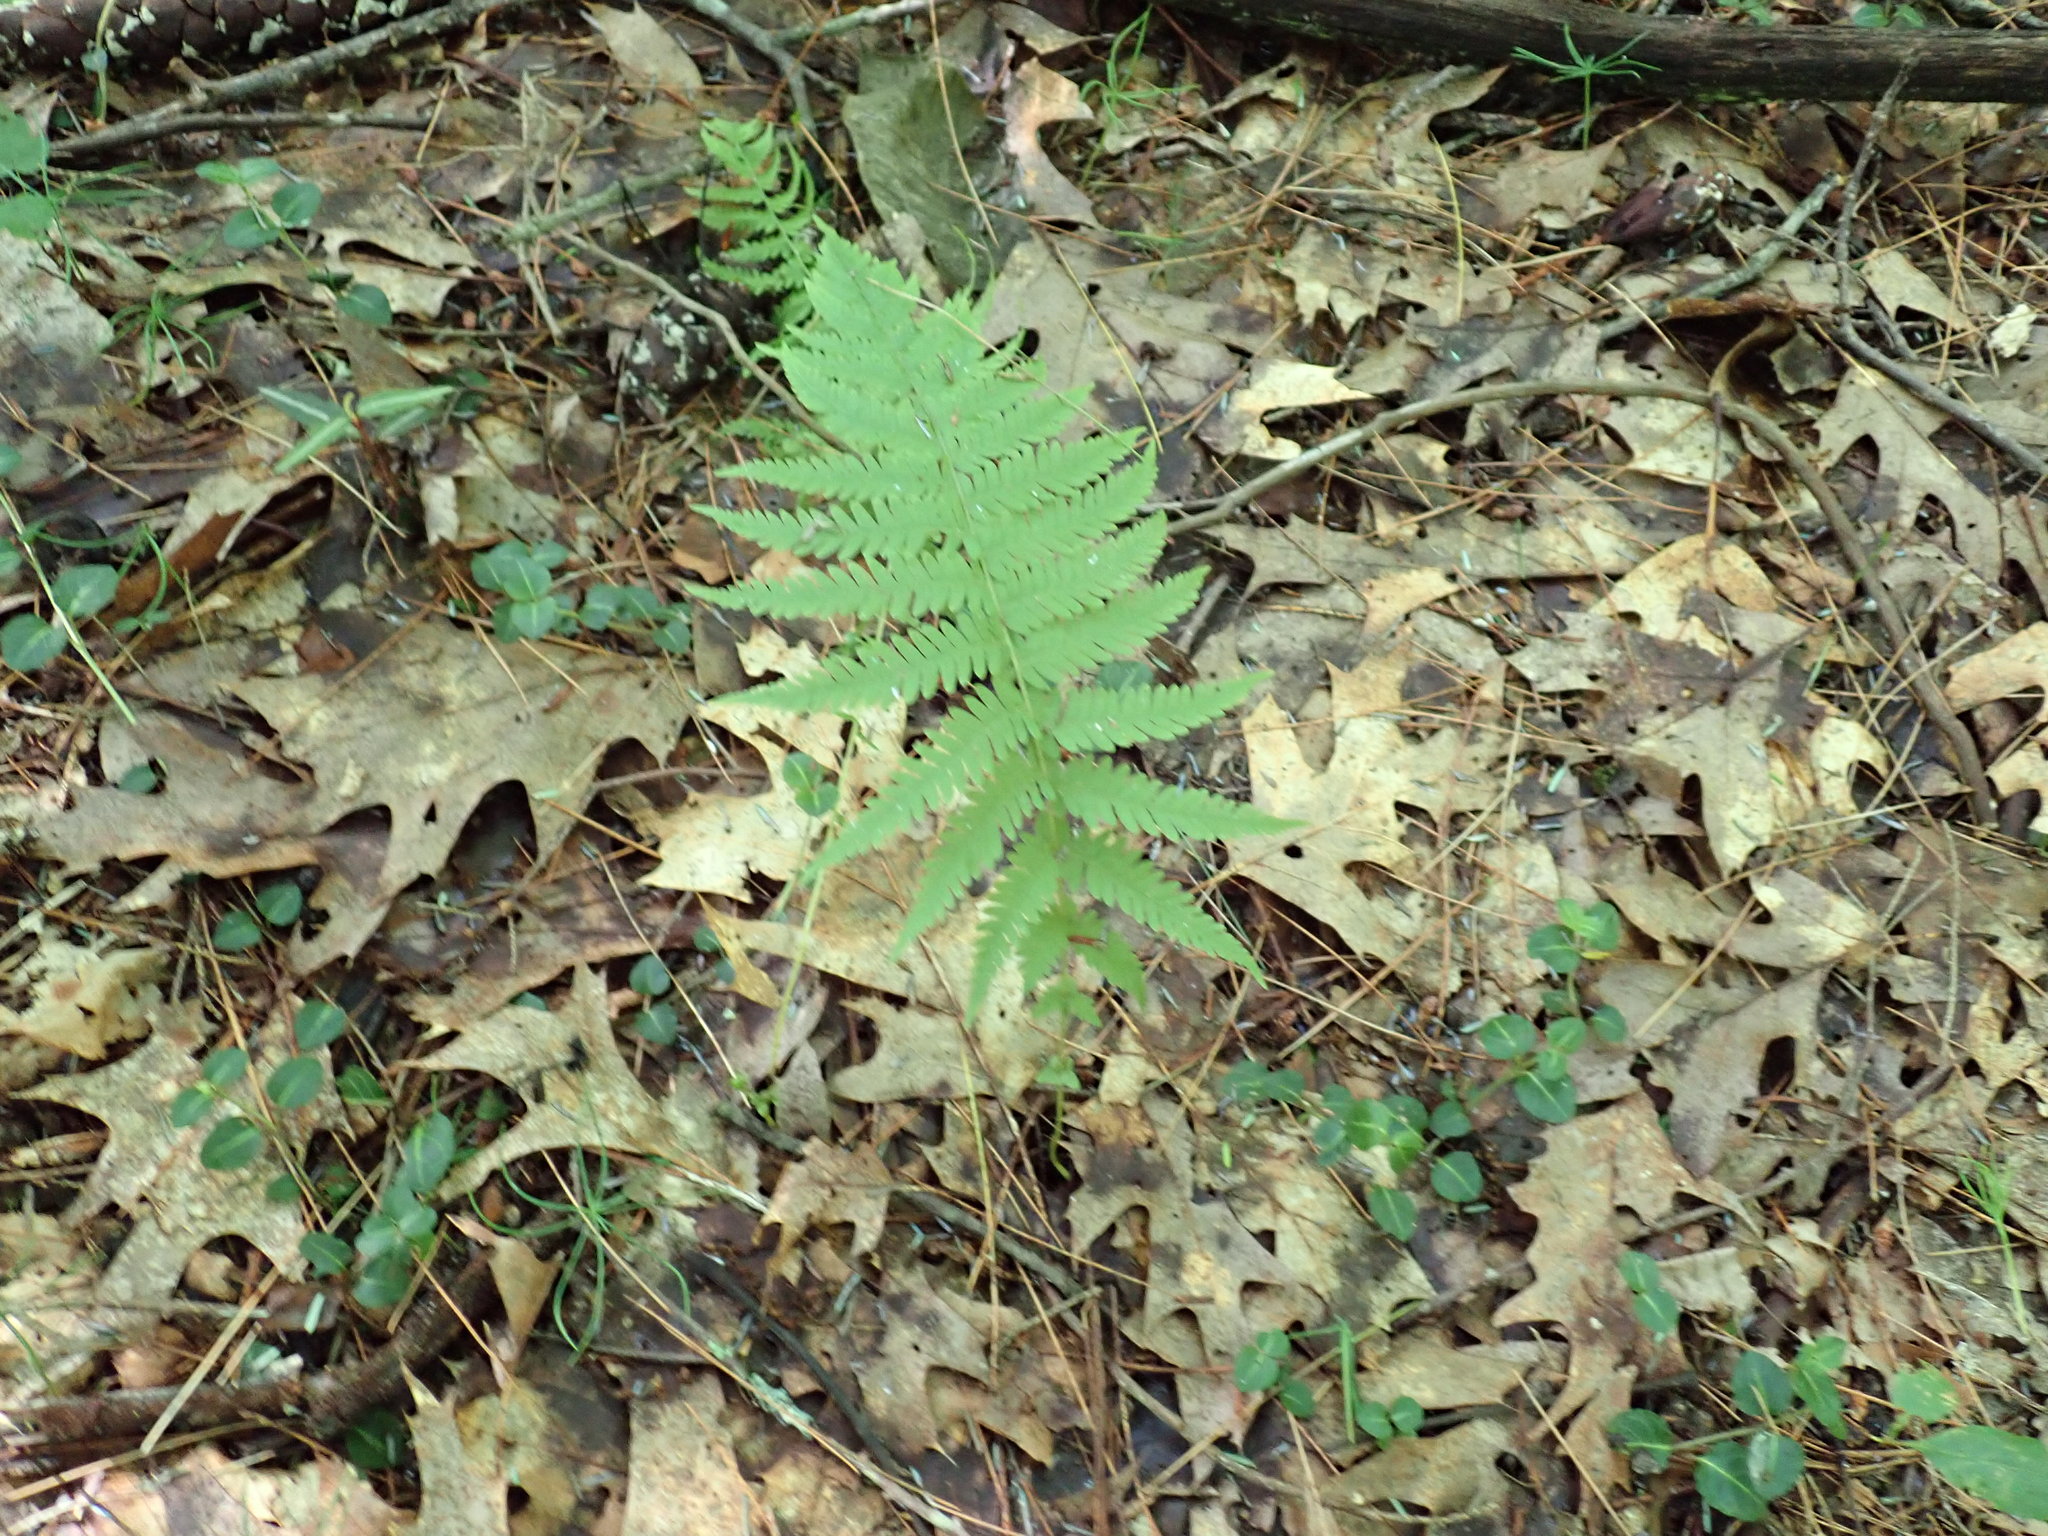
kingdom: Plantae
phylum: Tracheophyta
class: Polypodiopsida
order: Polypodiales
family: Thelypteridaceae
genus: Amauropelta
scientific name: Amauropelta noveboracensis
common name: New york fern
